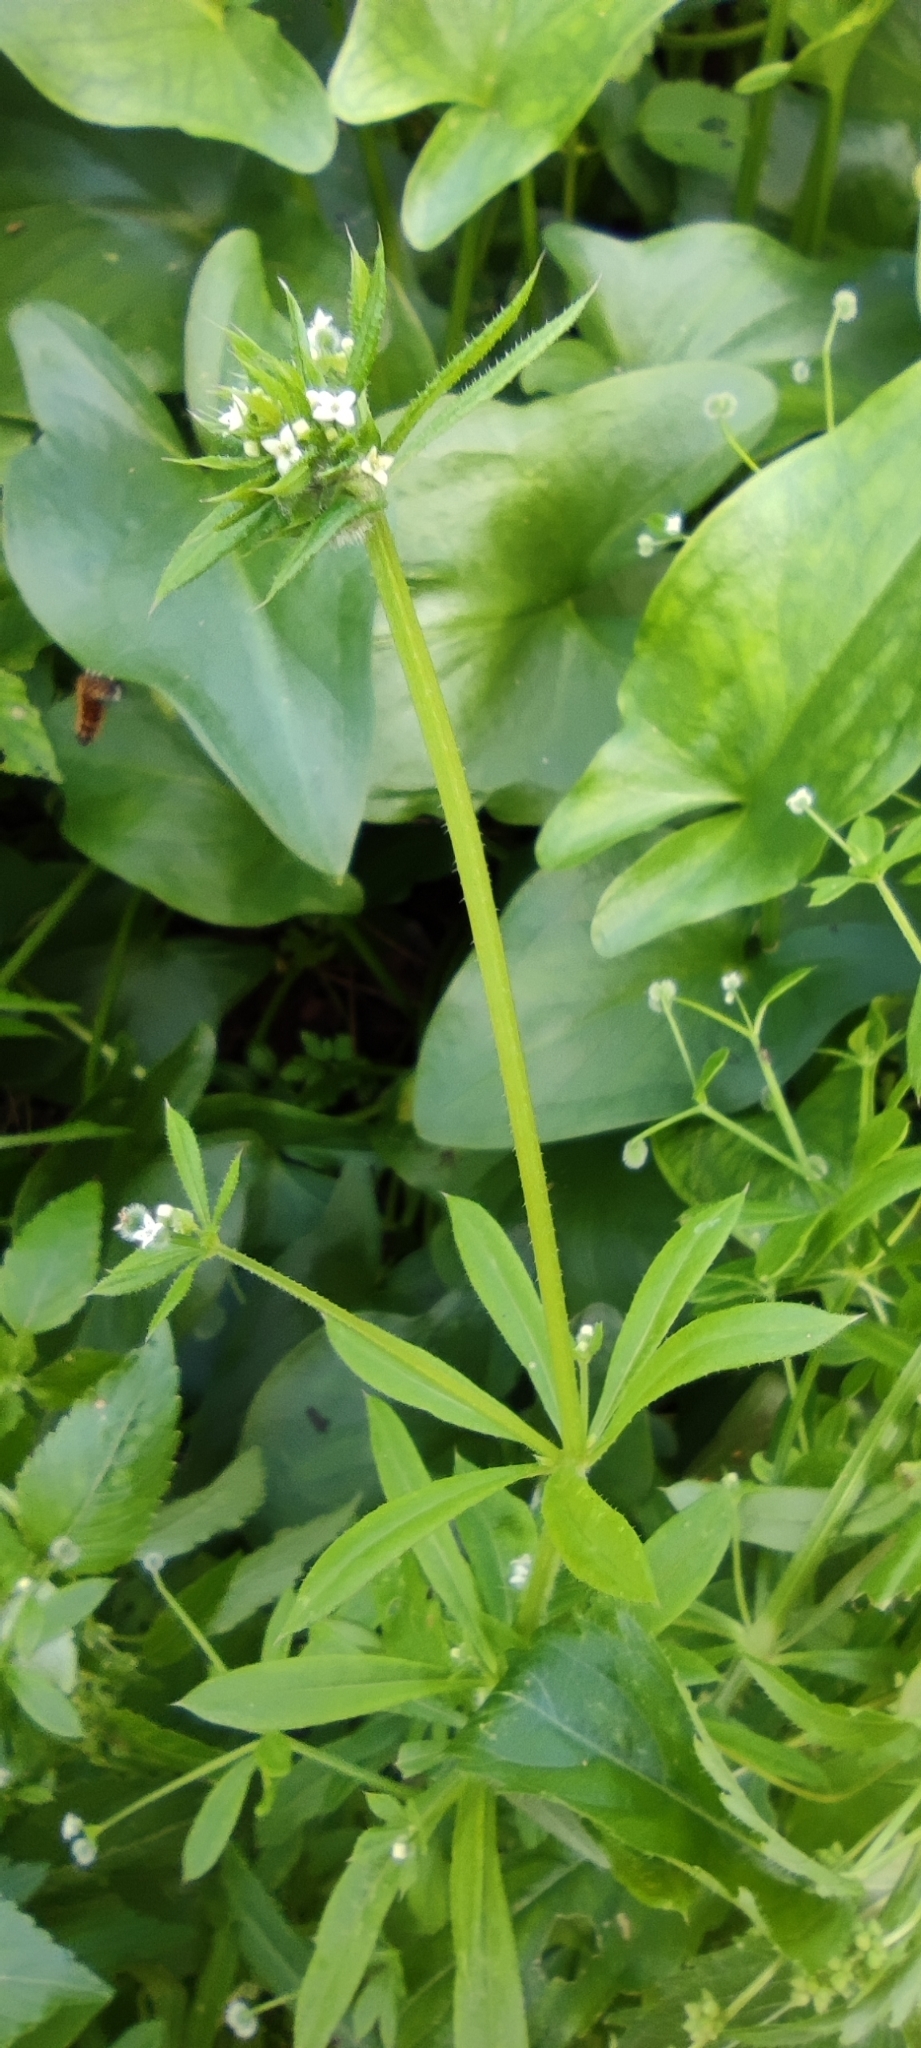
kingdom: Plantae
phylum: Tracheophyta
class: Magnoliopsida
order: Gentianales
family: Rubiaceae
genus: Galium
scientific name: Galium aparine
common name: Cleavers
